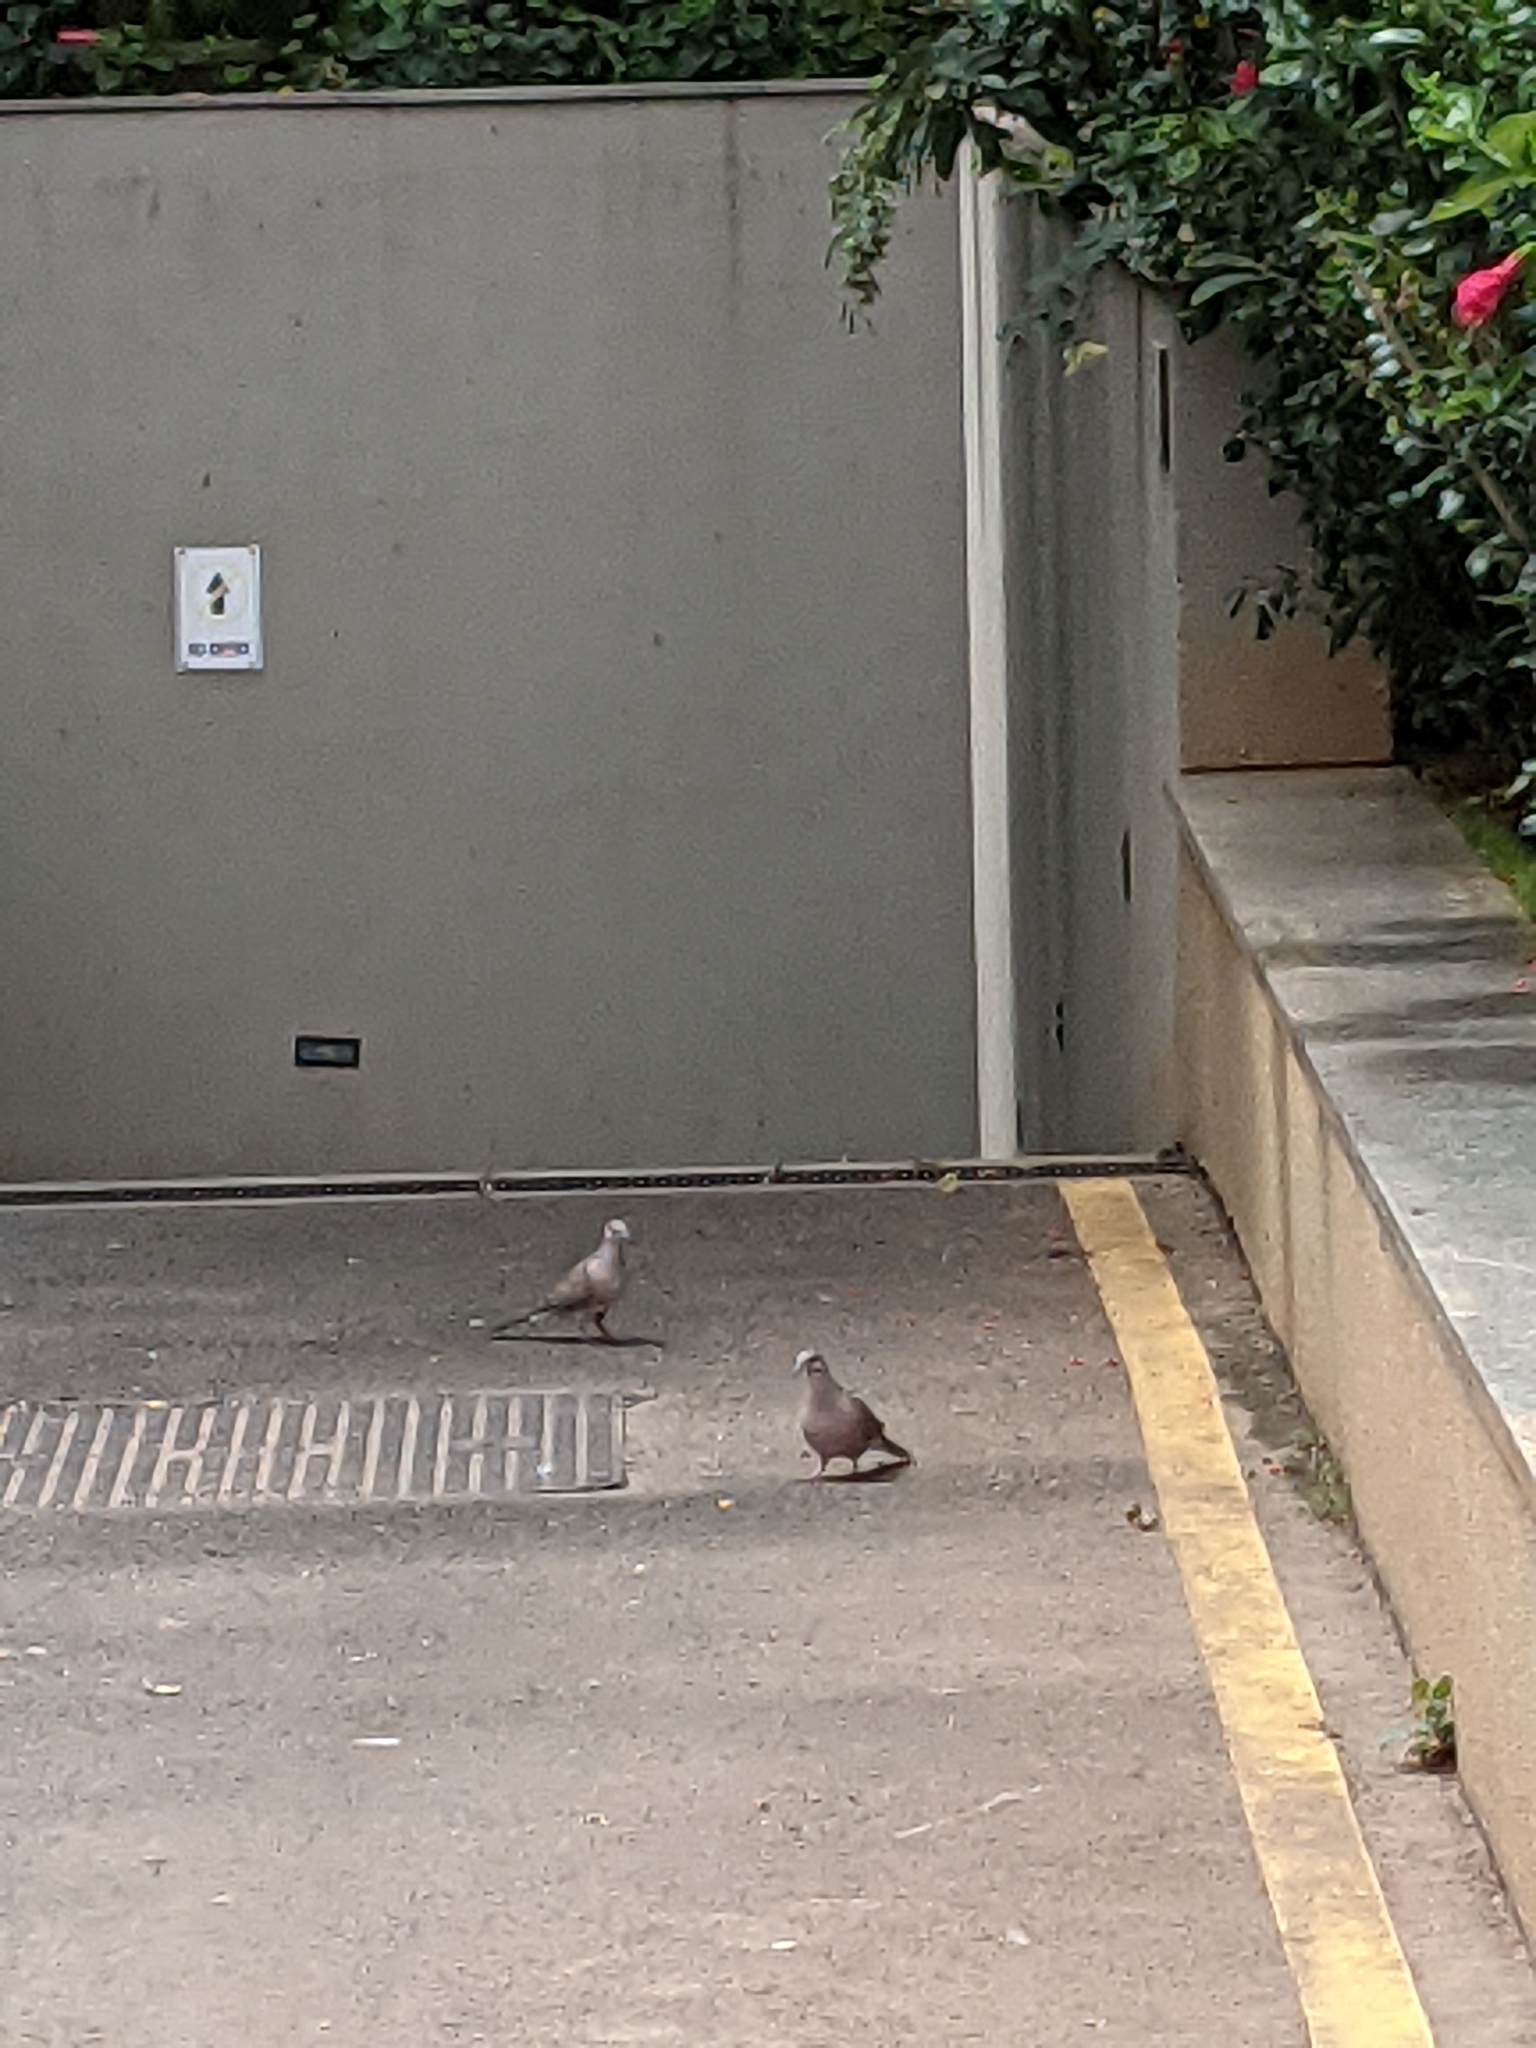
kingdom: Animalia
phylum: Chordata
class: Aves
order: Columbiformes
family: Columbidae
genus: Spilopelia
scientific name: Spilopelia chinensis
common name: Spotted dove
